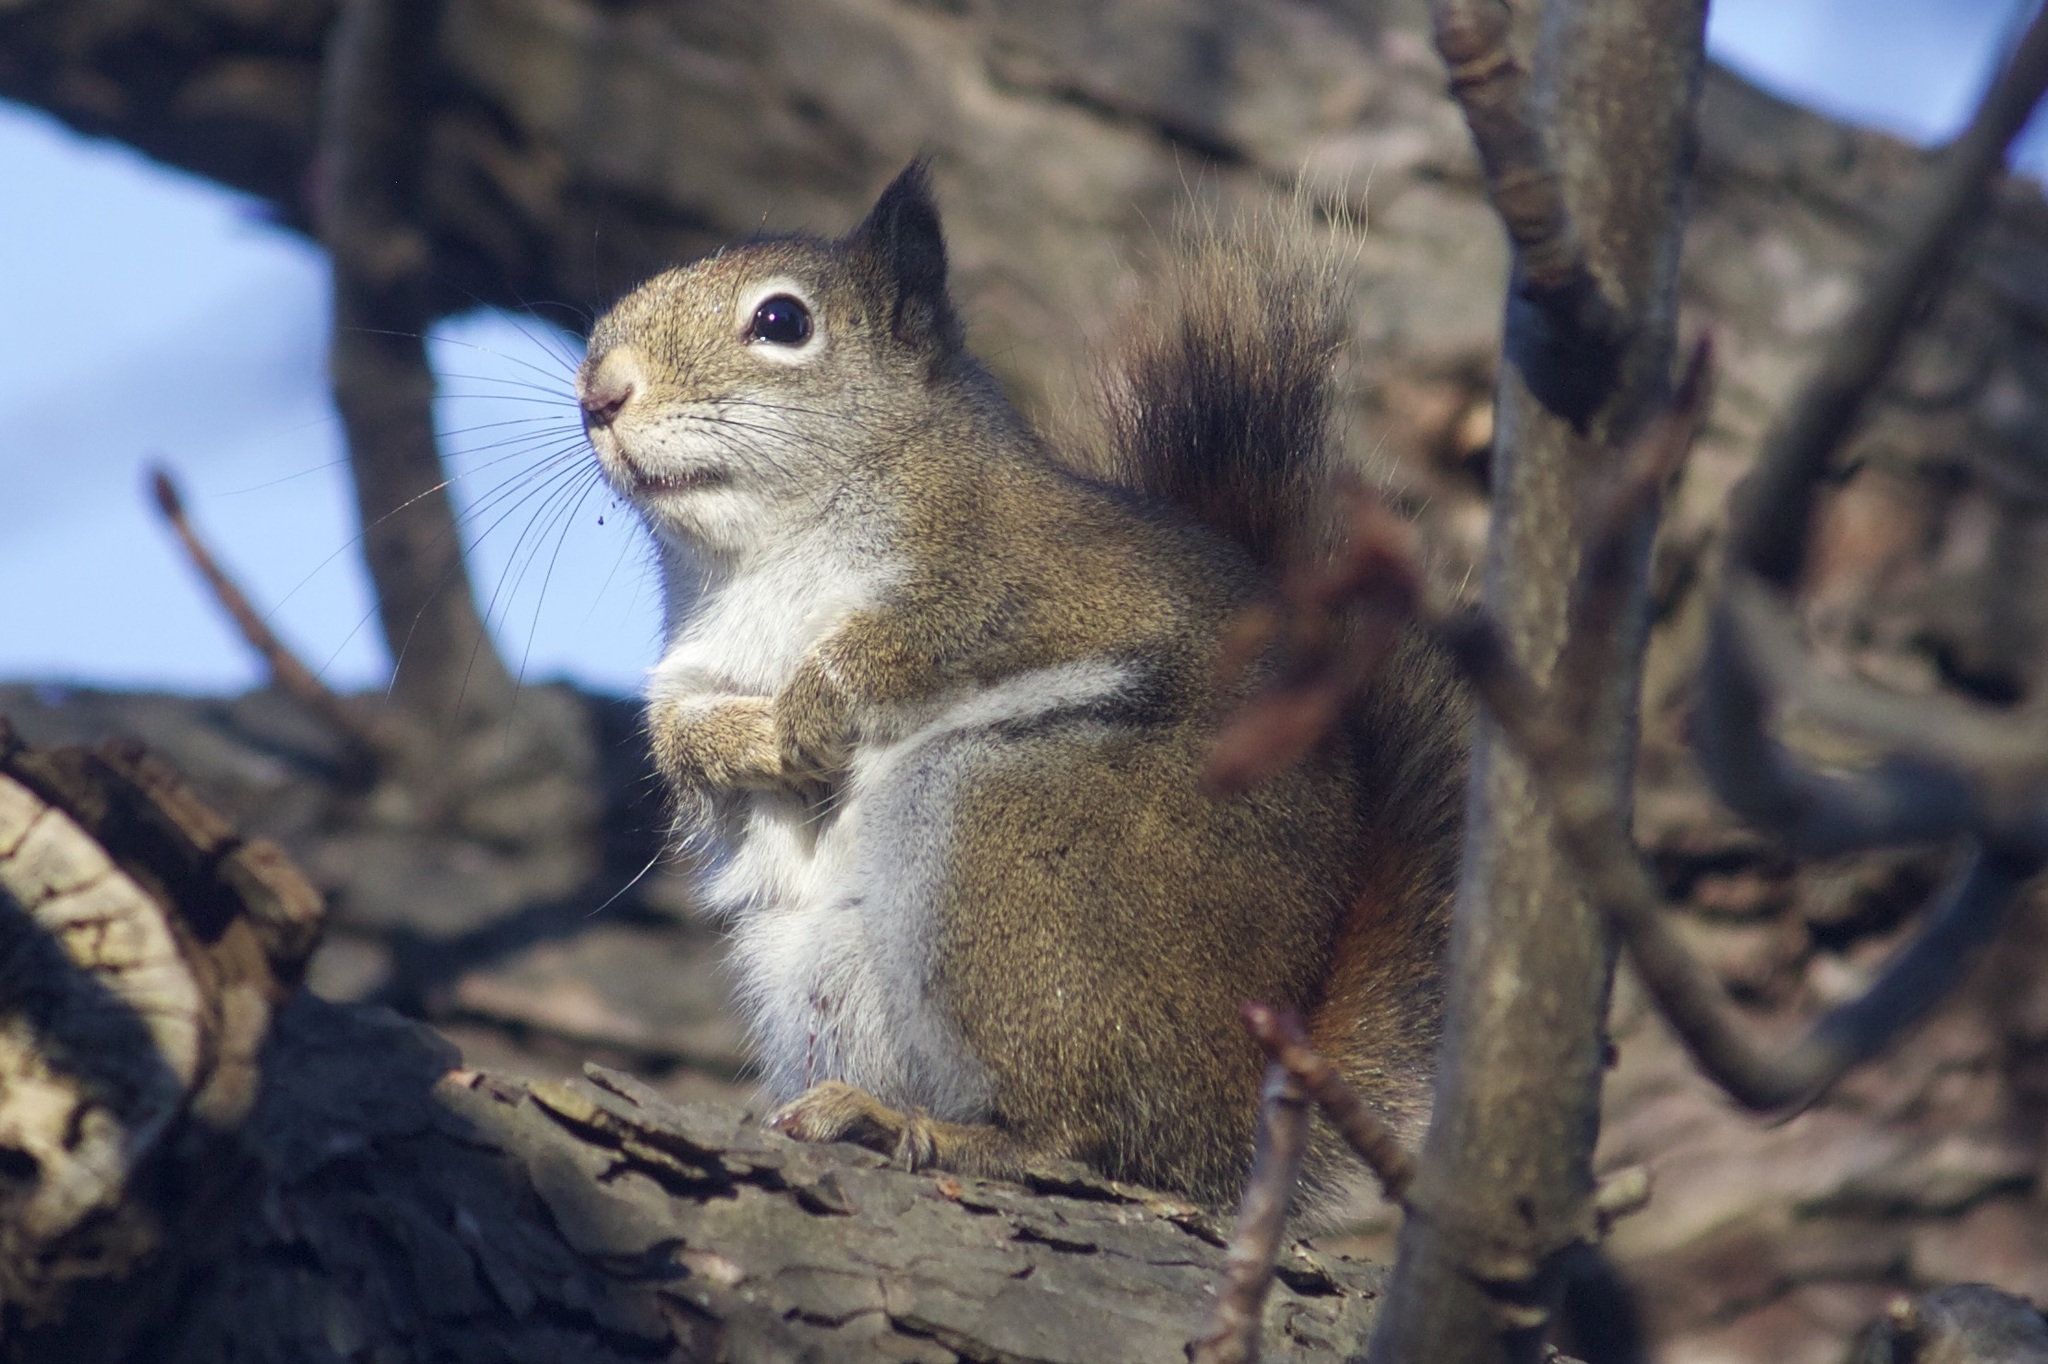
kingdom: Animalia
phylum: Chordata
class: Mammalia
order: Rodentia
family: Sciuridae
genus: Tamiasciurus
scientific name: Tamiasciurus hudsonicus
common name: Red squirrel
